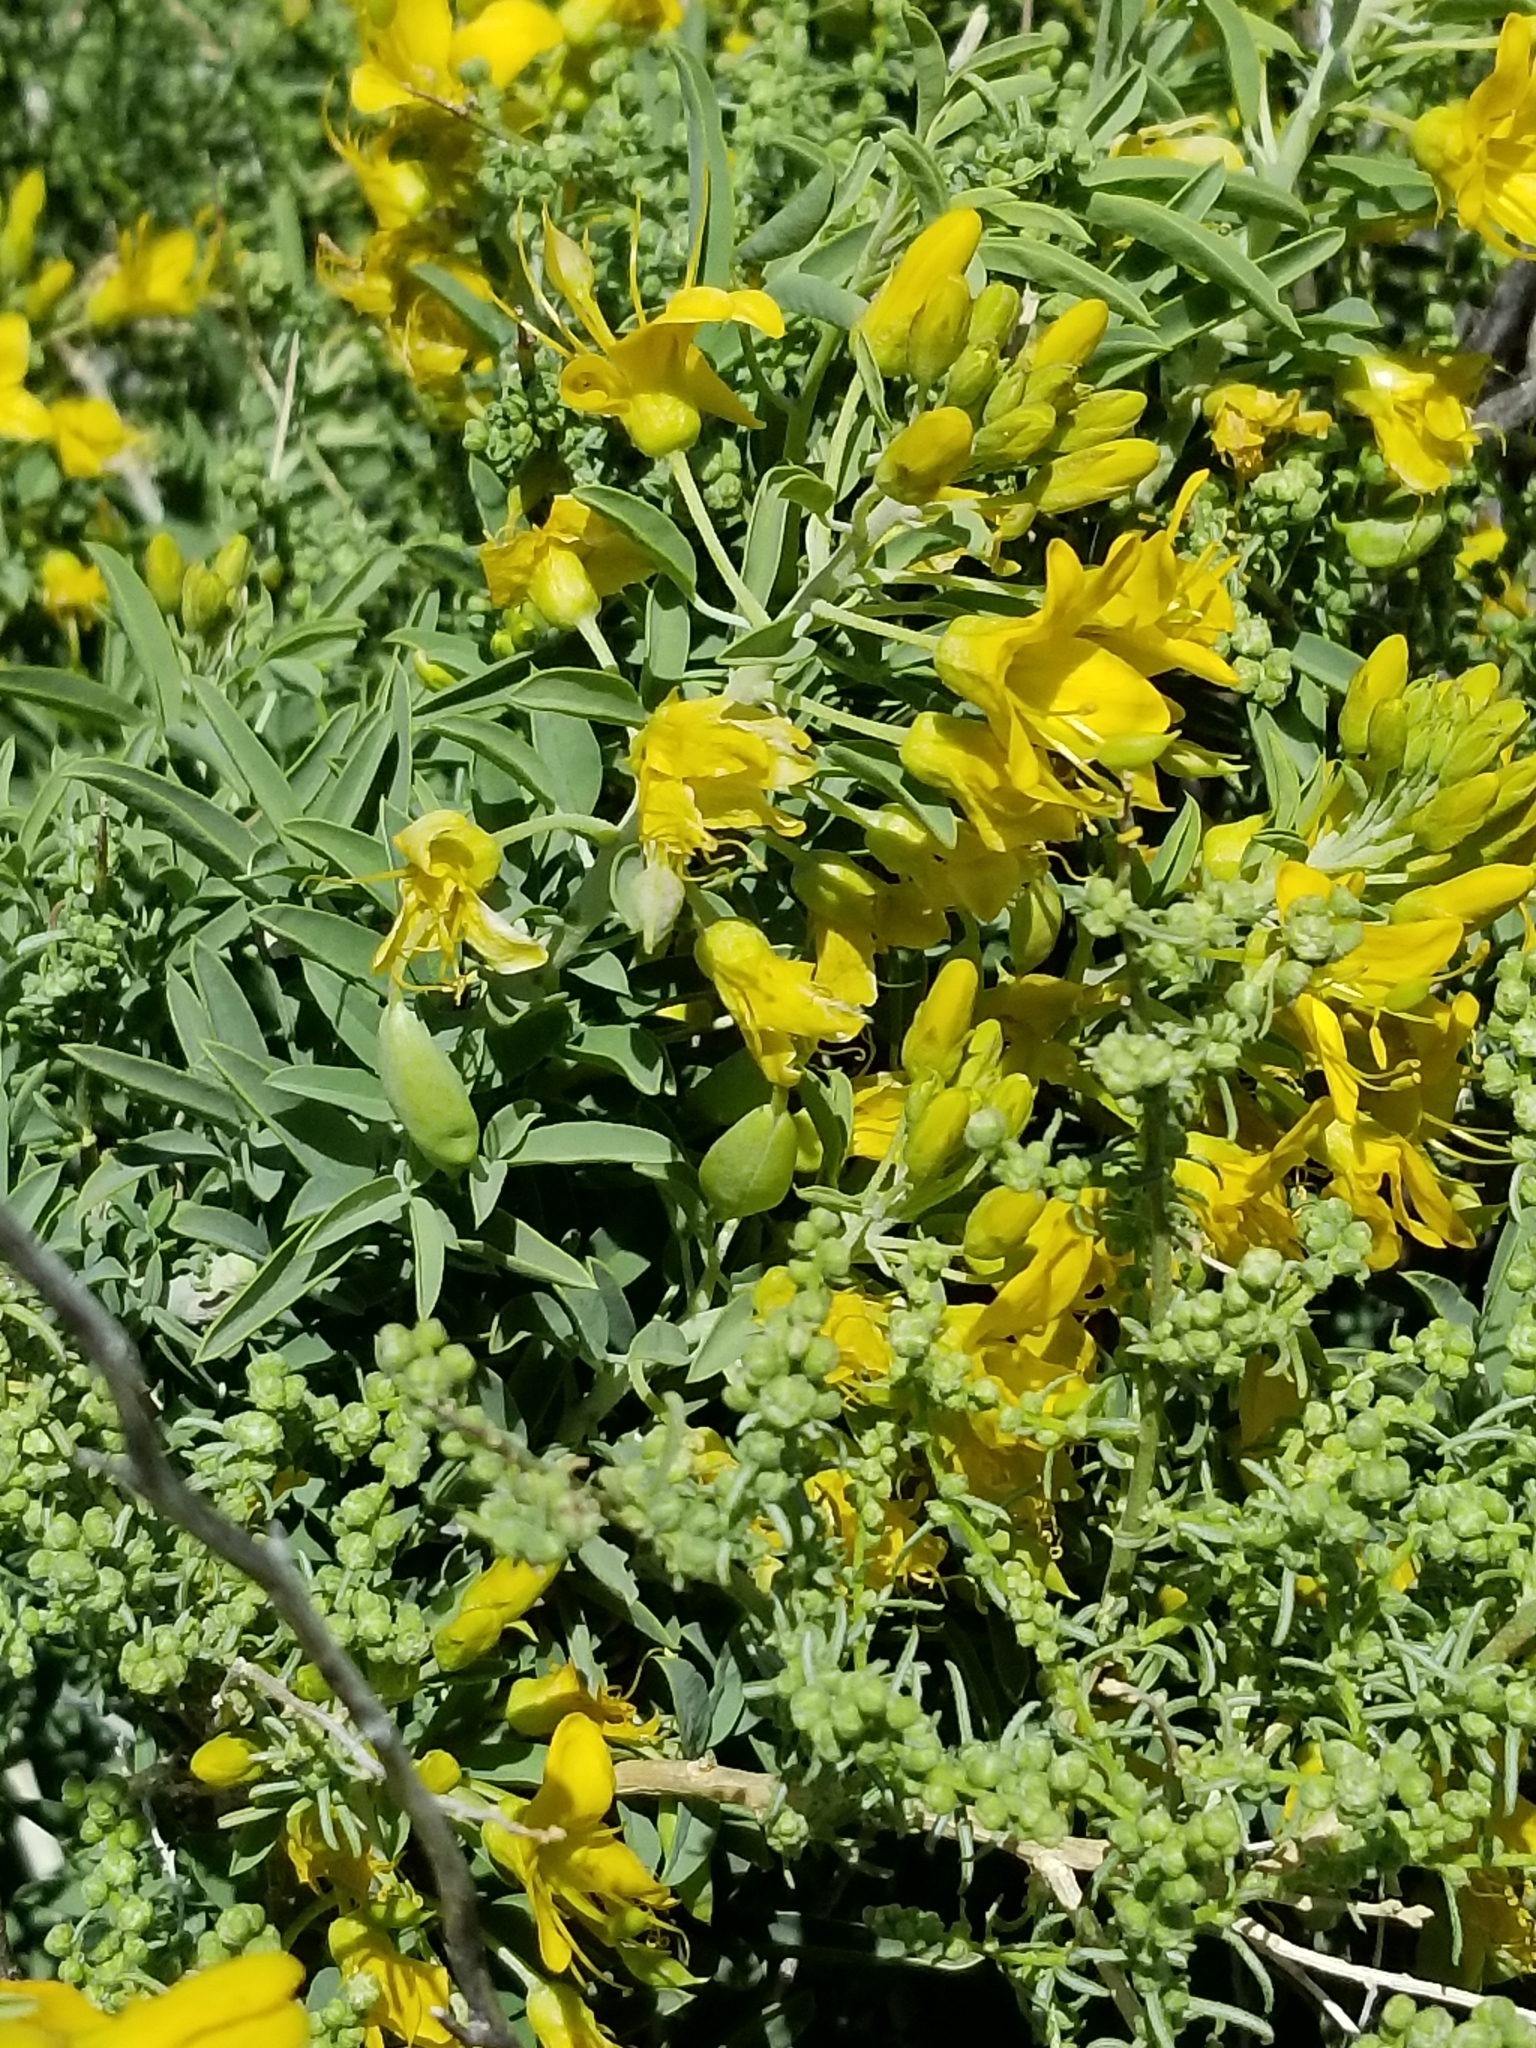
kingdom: Plantae
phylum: Tracheophyta
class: Magnoliopsida
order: Brassicales
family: Cleomaceae
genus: Cleomella
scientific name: Cleomella arborea
